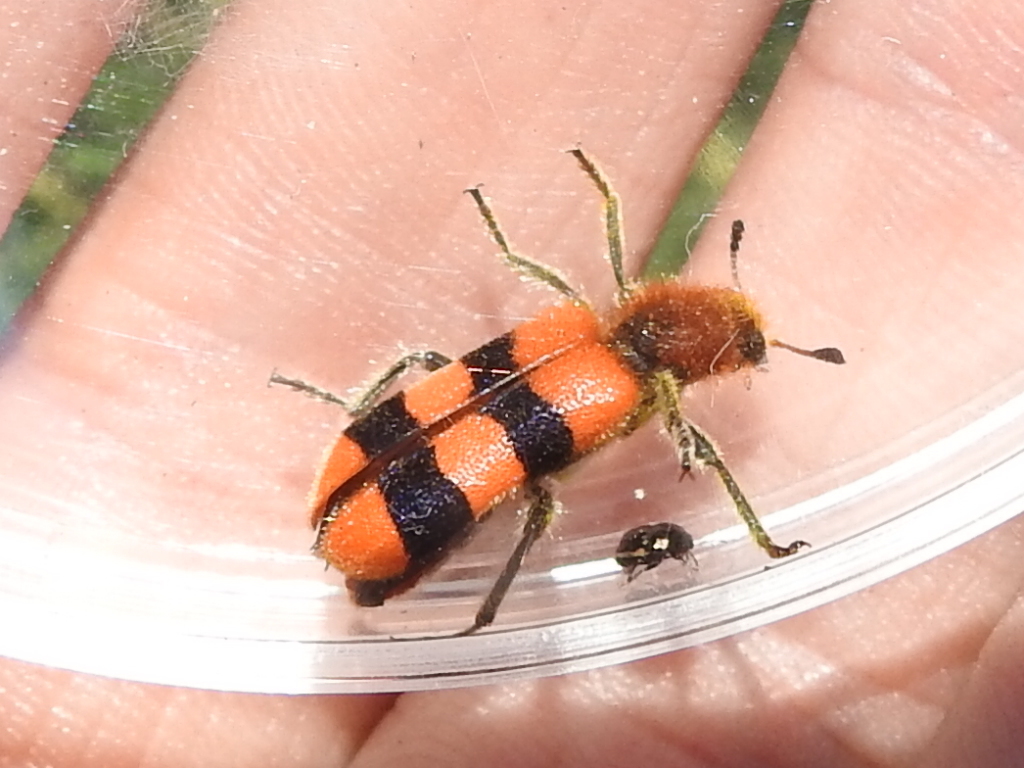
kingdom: Animalia
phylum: Arthropoda
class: Insecta
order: Coleoptera
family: Cleridae
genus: Trichodes
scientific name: Trichodes bibalteatus
